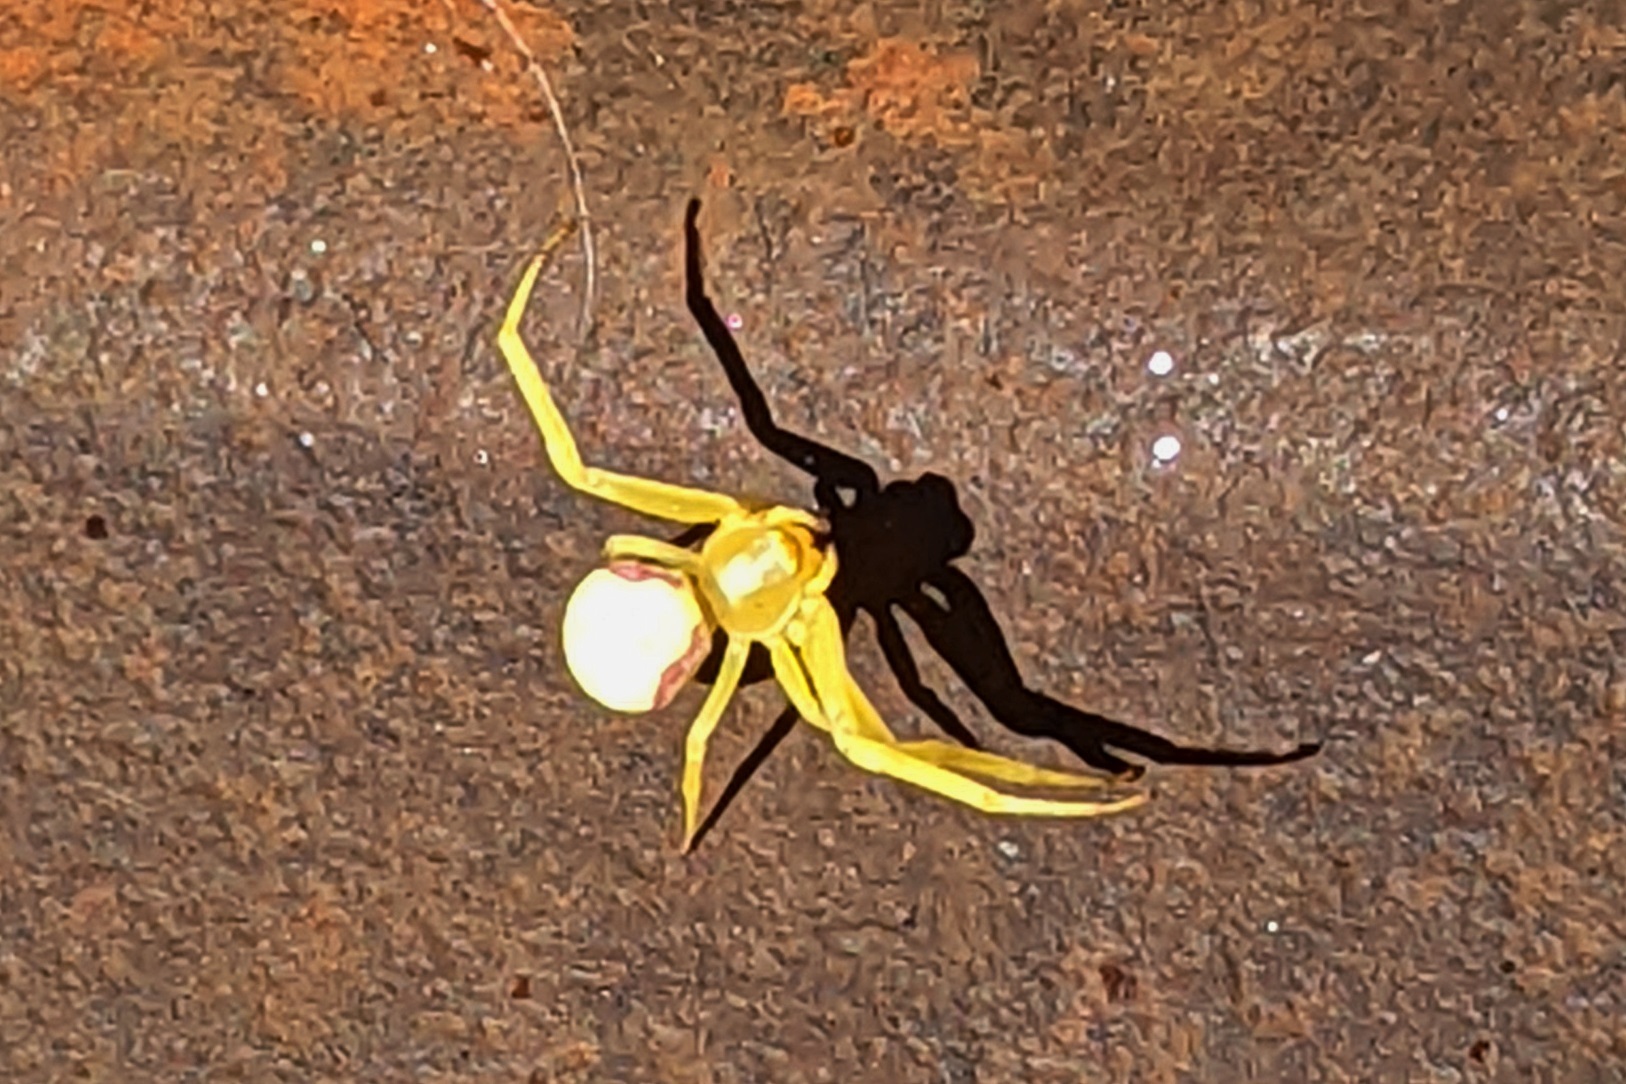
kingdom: Animalia
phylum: Arthropoda
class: Arachnida
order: Araneae
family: Thomisidae
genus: Misumena
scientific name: Misumena vatia
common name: Goldenrod crab spider
